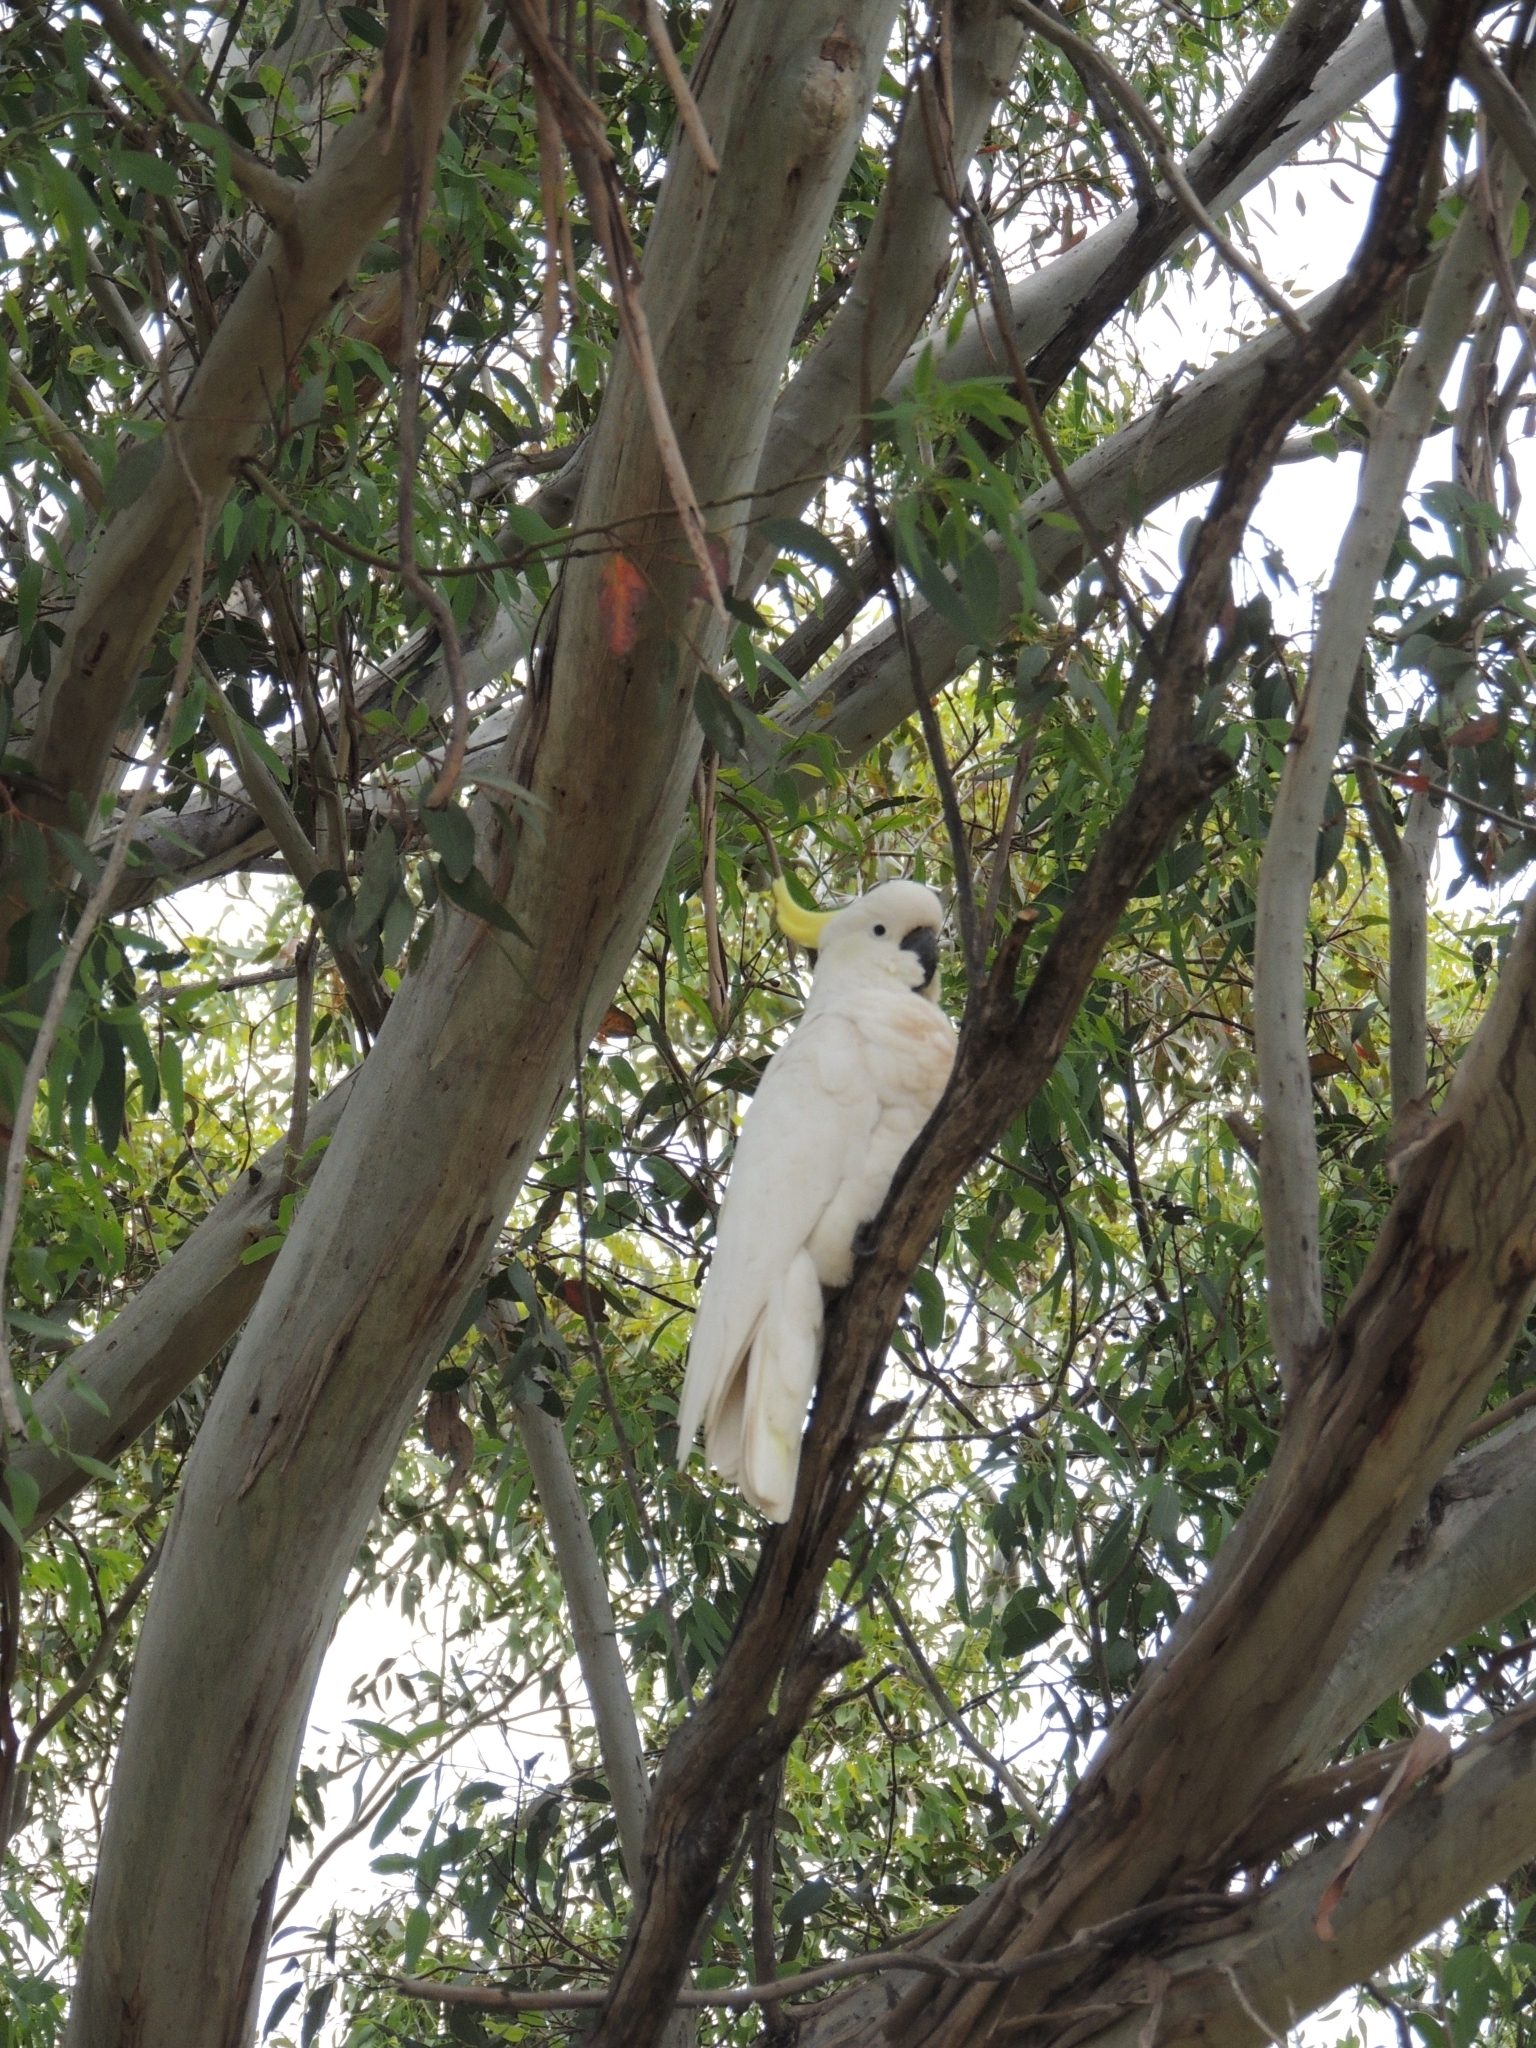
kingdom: Animalia
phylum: Chordata
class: Aves
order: Psittaciformes
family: Psittacidae
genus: Cacatua
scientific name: Cacatua galerita
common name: Sulphur-crested cockatoo
